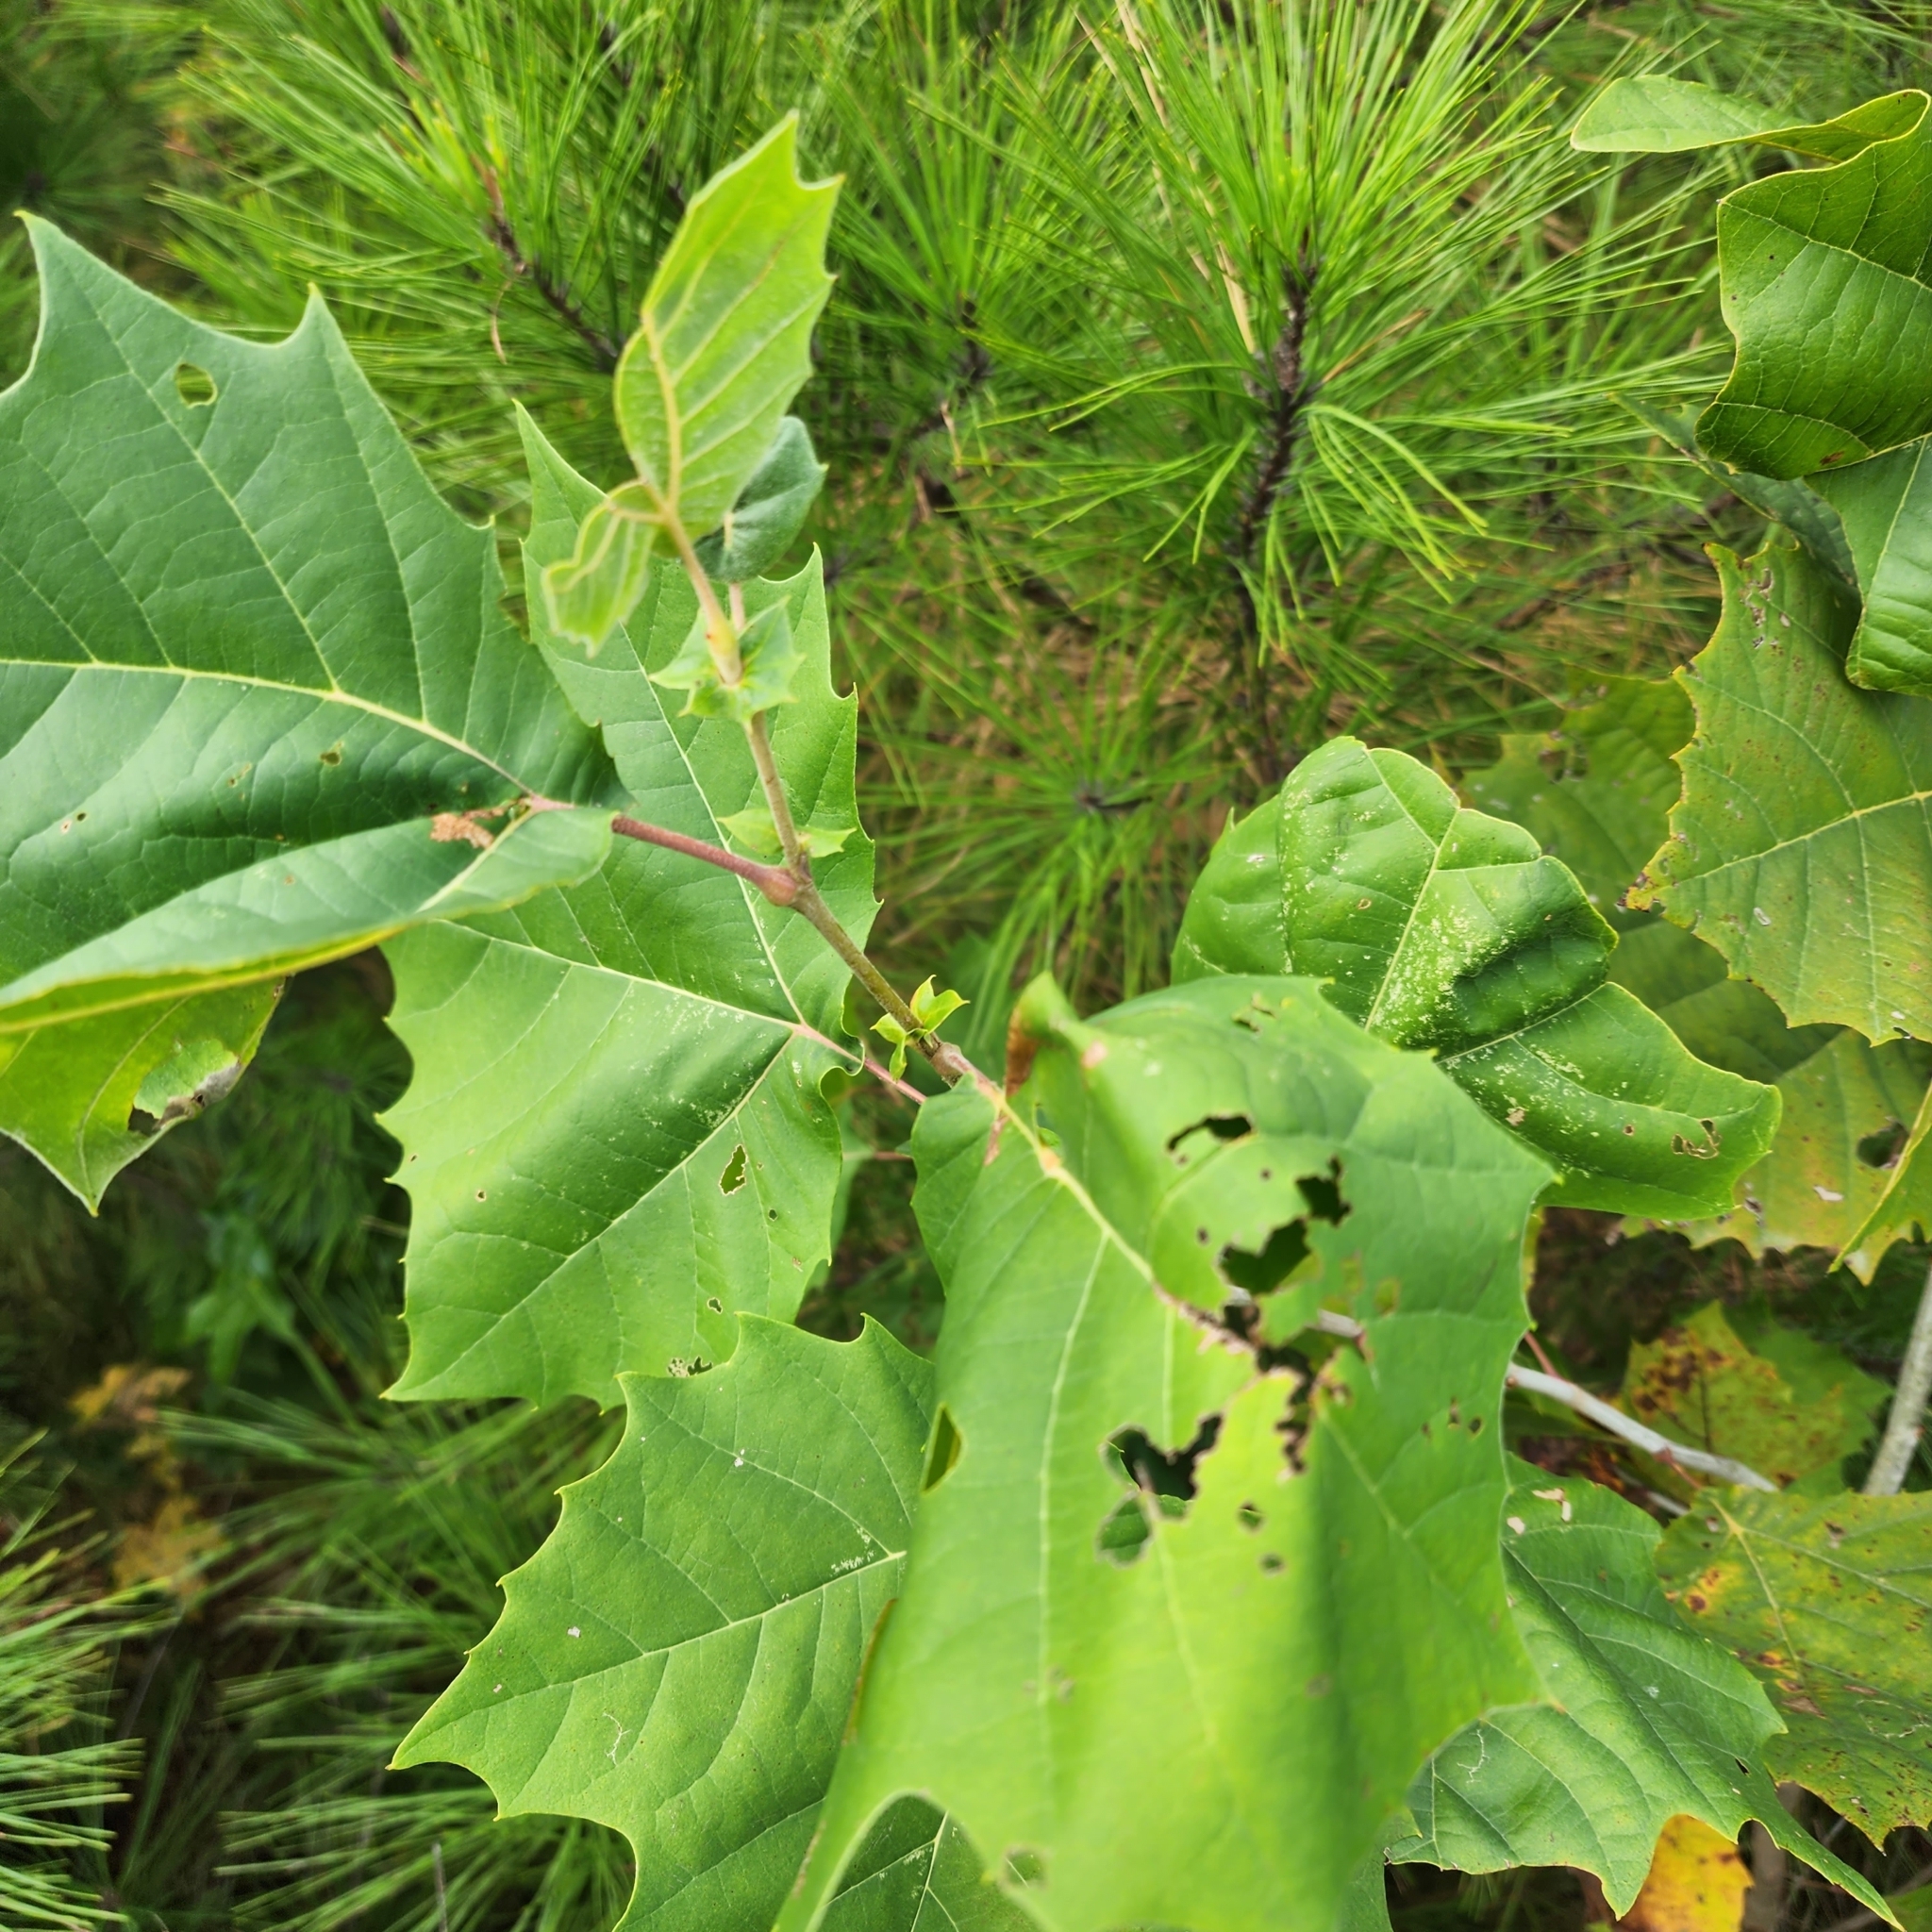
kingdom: Plantae
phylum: Tracheophyta
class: Magnoliopsida
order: Proteales
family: Platanaceae
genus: Platanus
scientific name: Platanus occidentalis
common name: American sycamore
